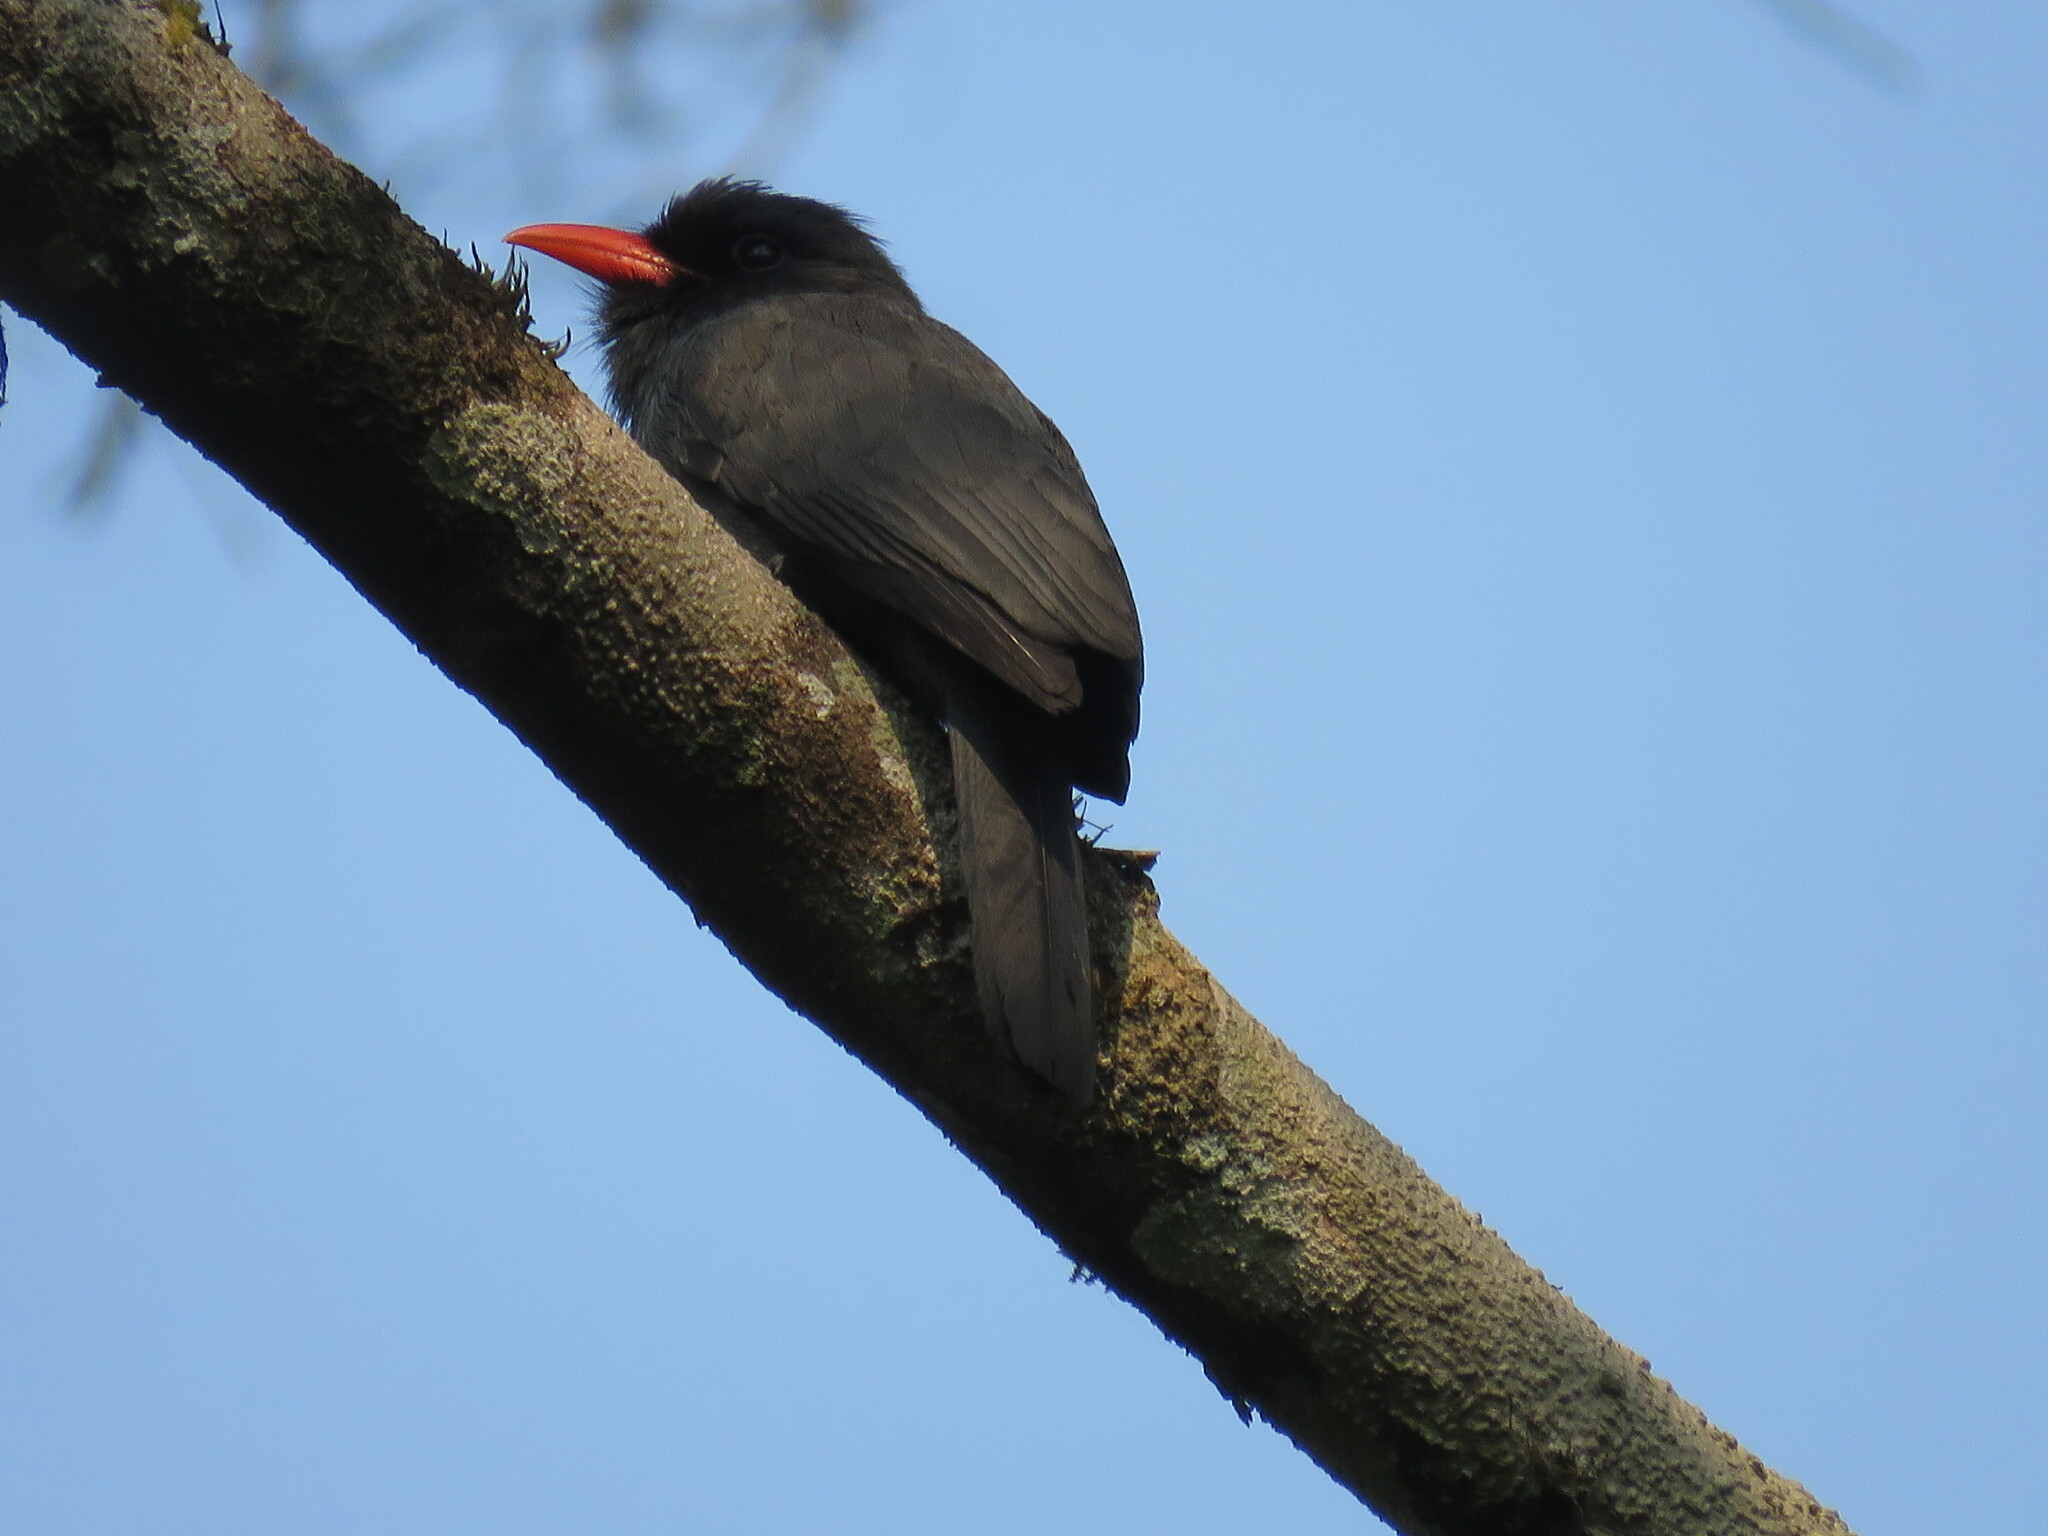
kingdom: Animalia
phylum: Chordata
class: Aves
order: Piciformes
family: Bucconidae
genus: Monasa
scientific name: Monasa nigrifrons
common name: Black-fronted nunbird
